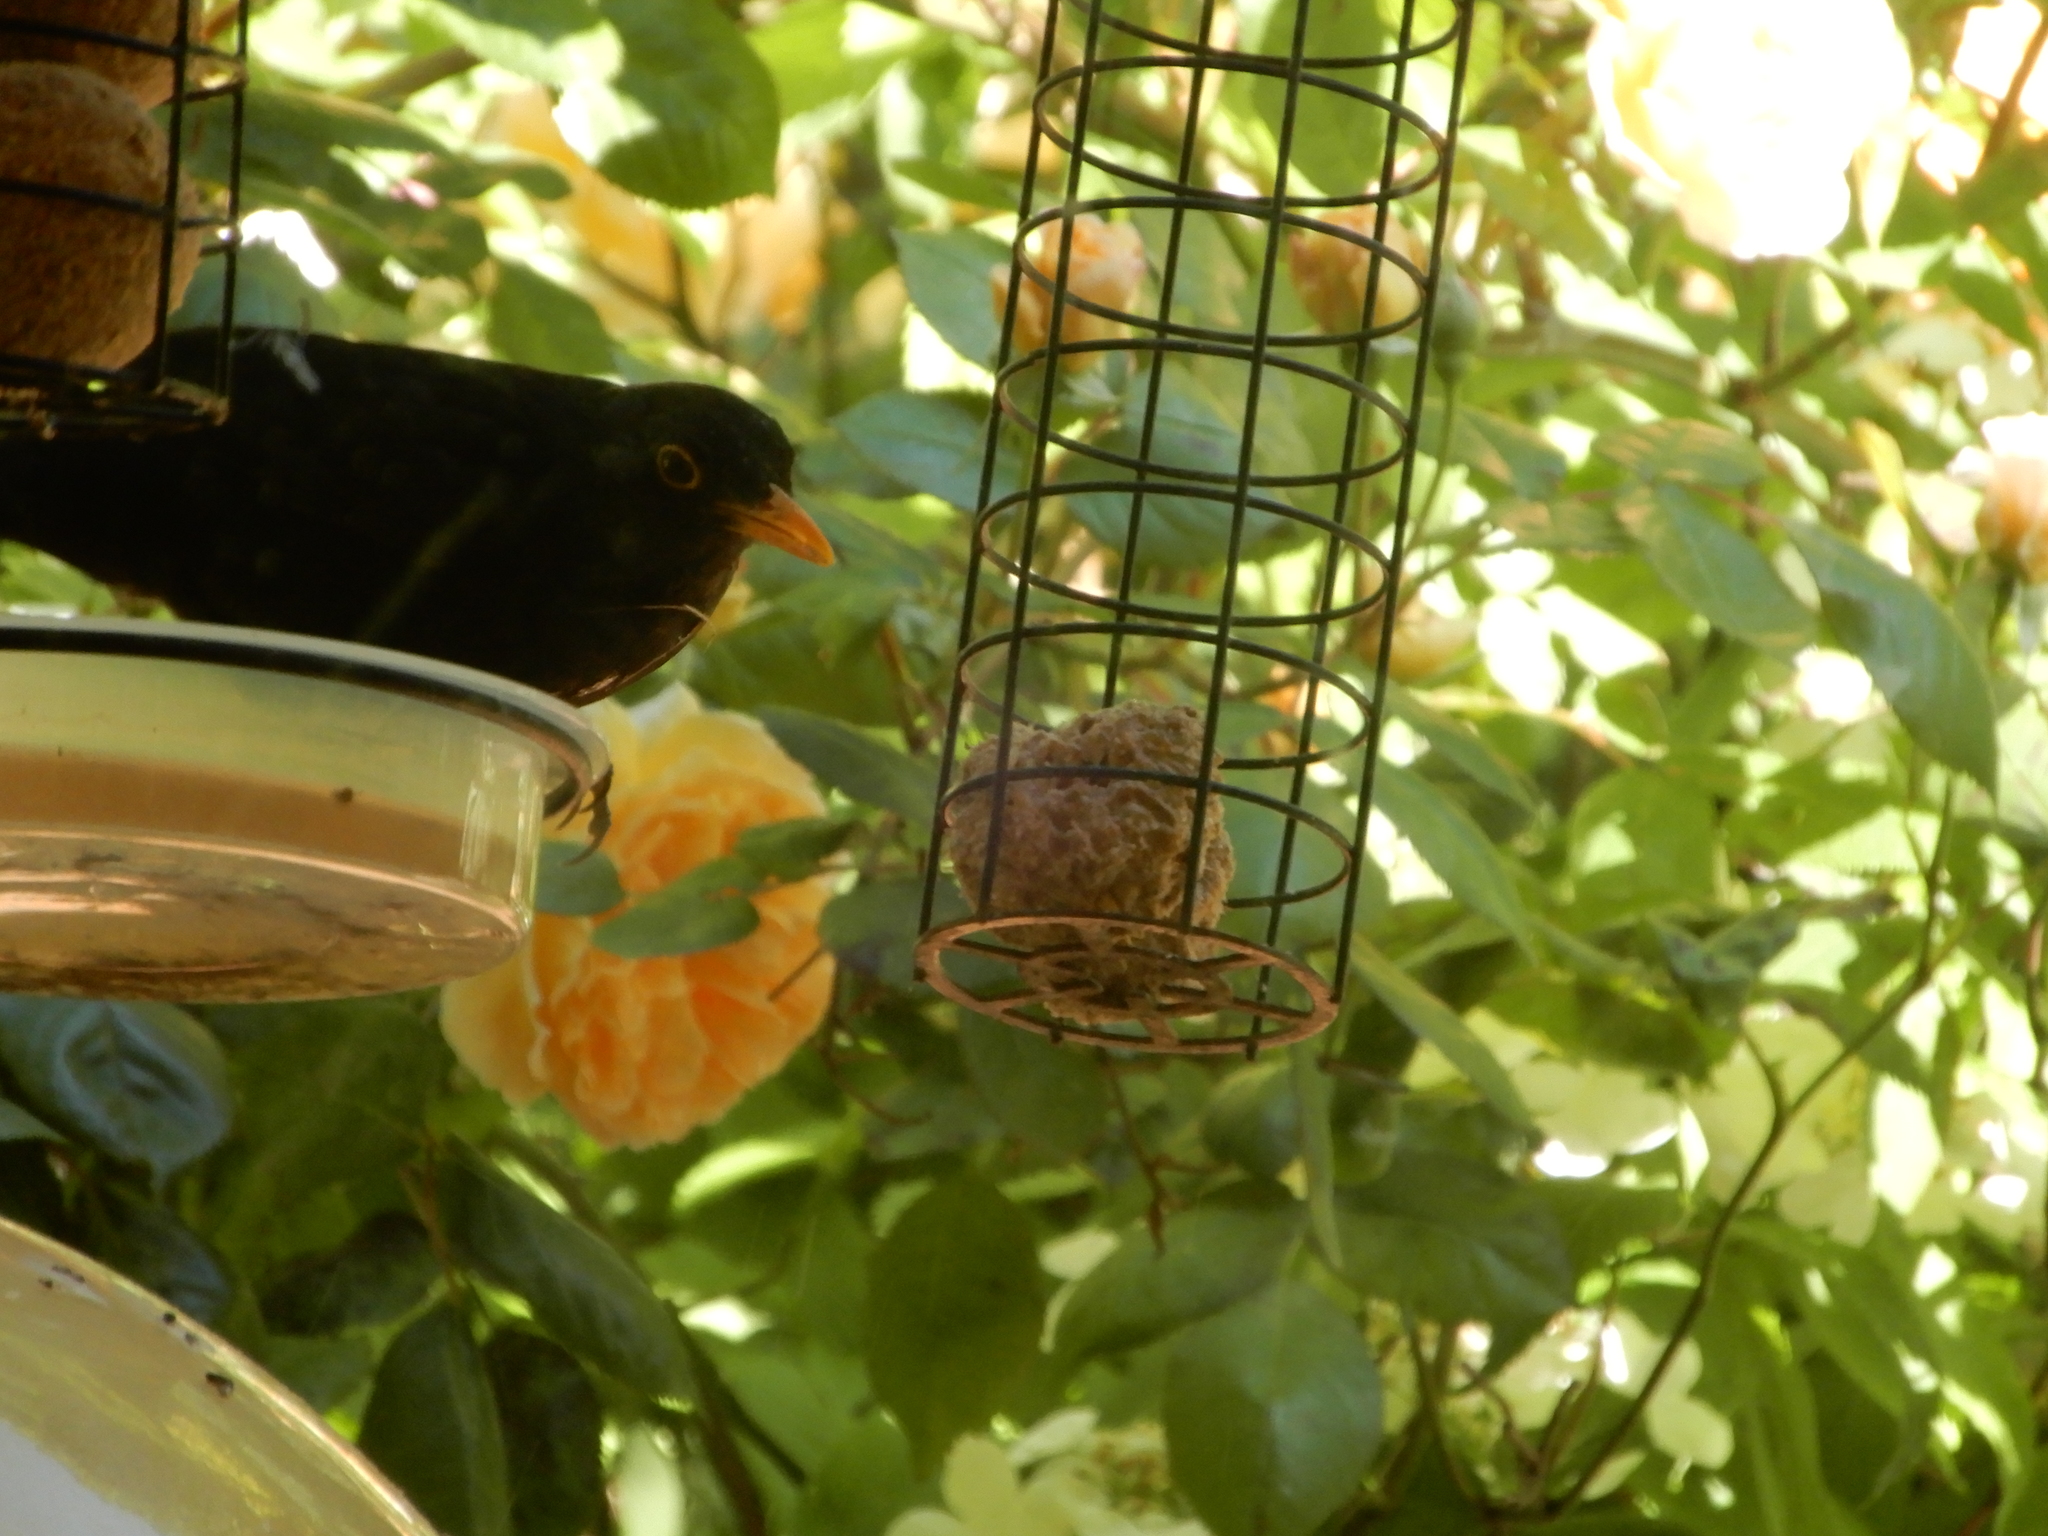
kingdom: Animalia
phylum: Chordata
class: Aves
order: Passeriformes
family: Turdidae
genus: Turdus
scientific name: Turdus merula
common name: Common blackbird
